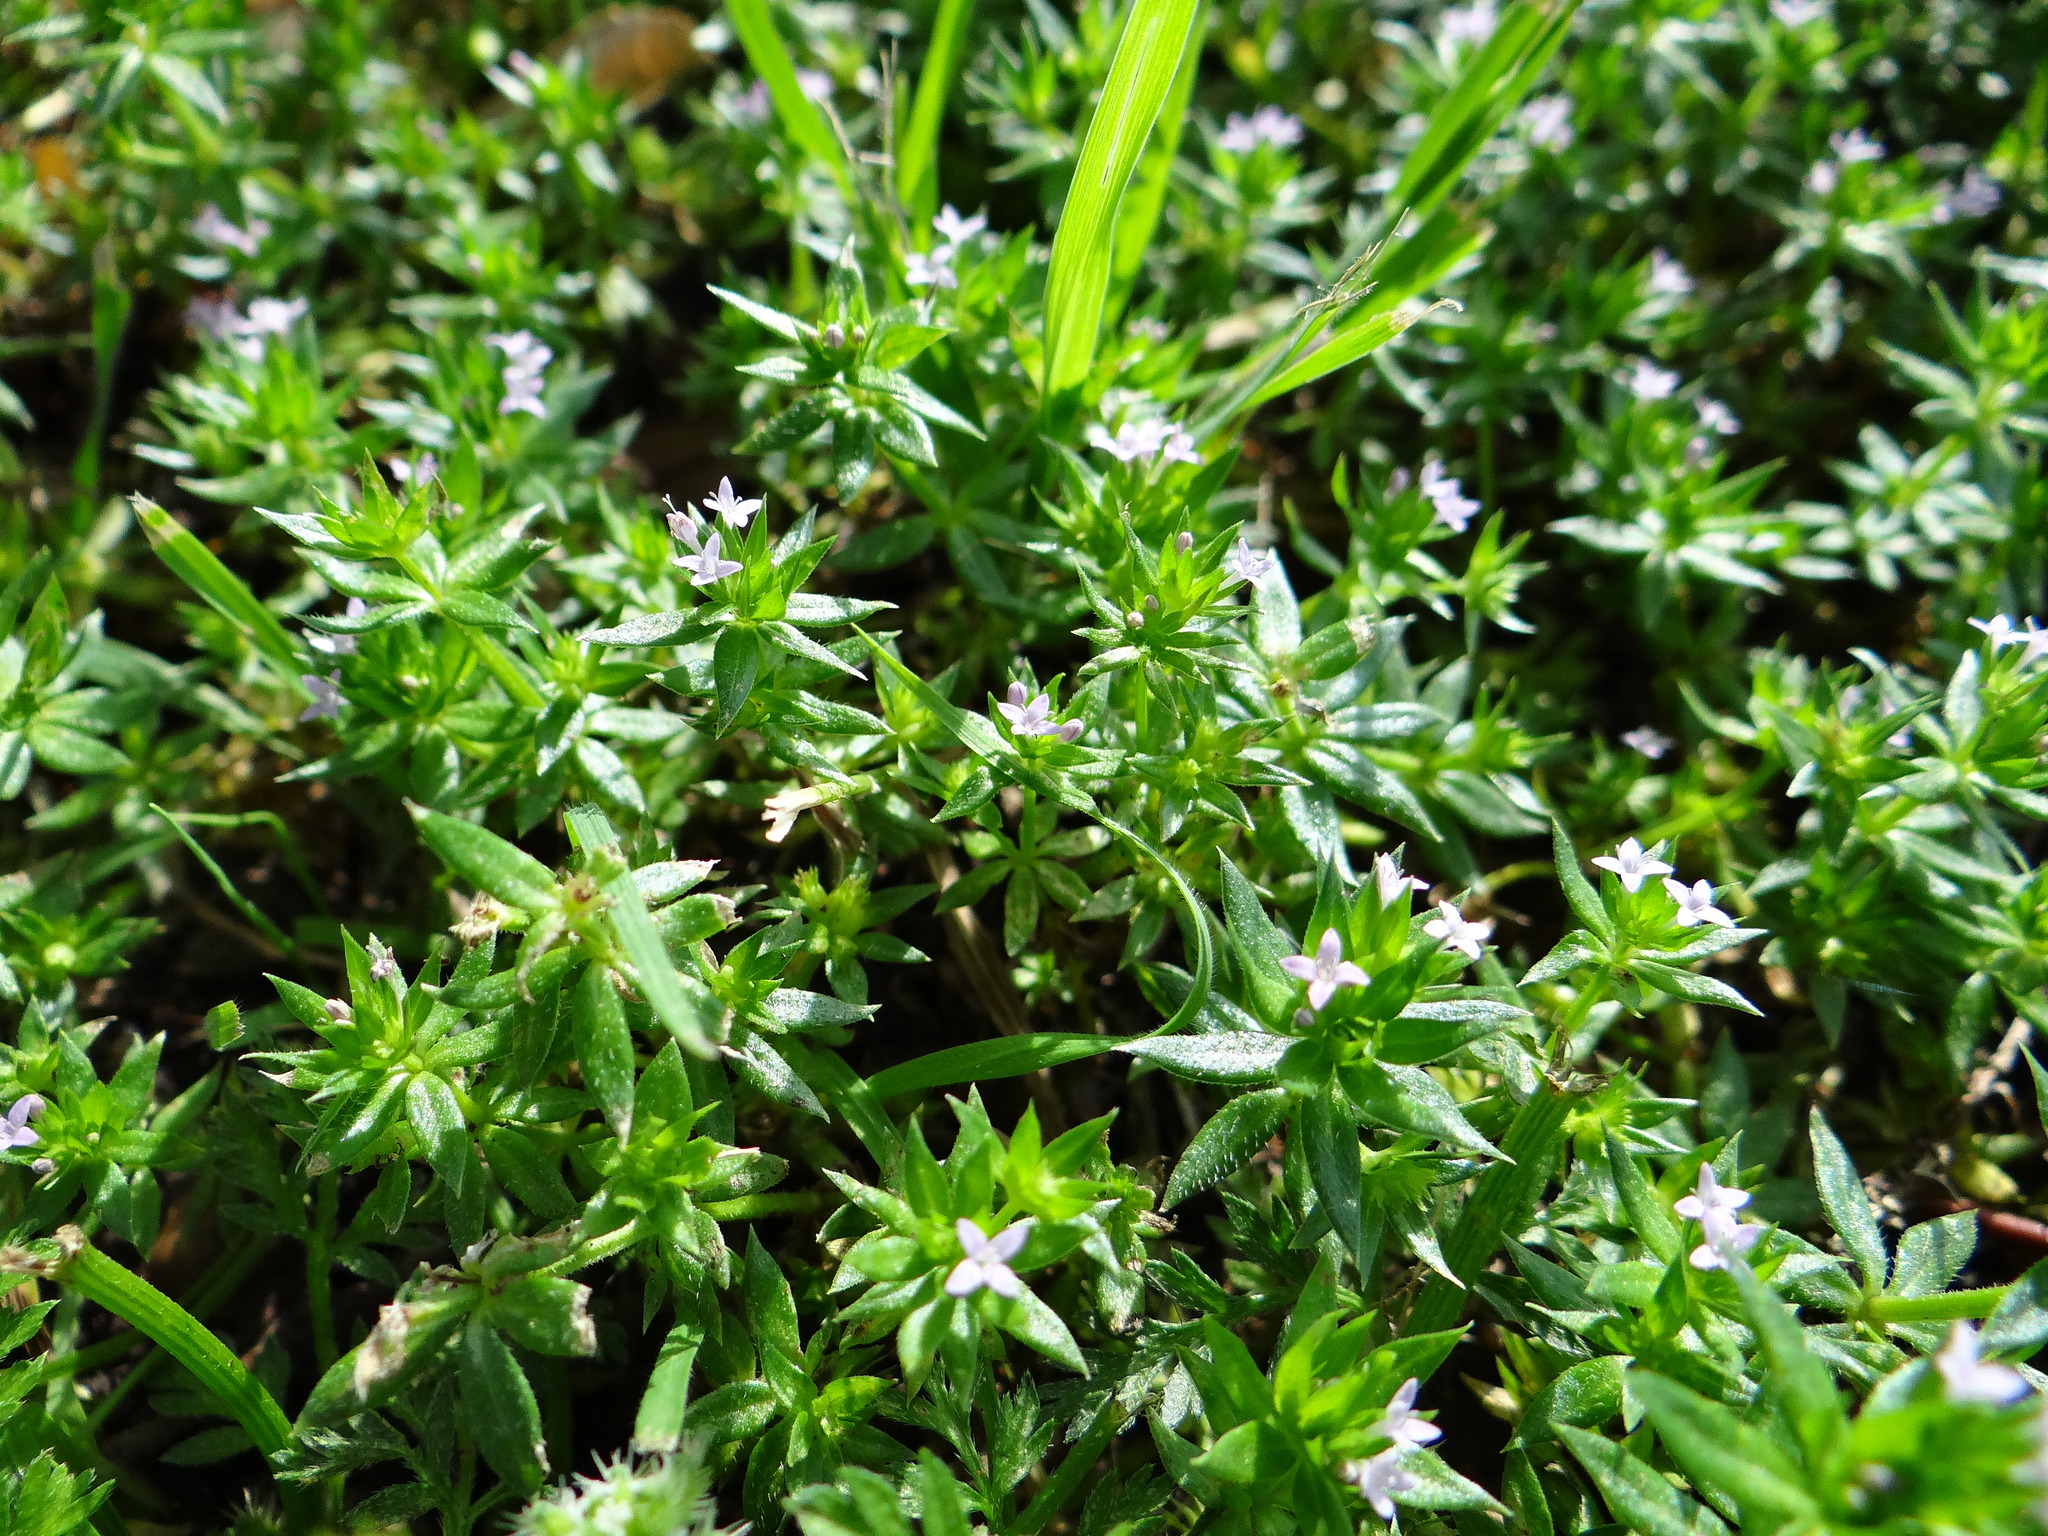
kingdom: Plantae
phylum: Tracheophyta
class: Magnoliopsida
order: Gentianales
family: Rubiaceae
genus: Sherardia
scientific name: Sherardia arvensis
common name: Field madder
